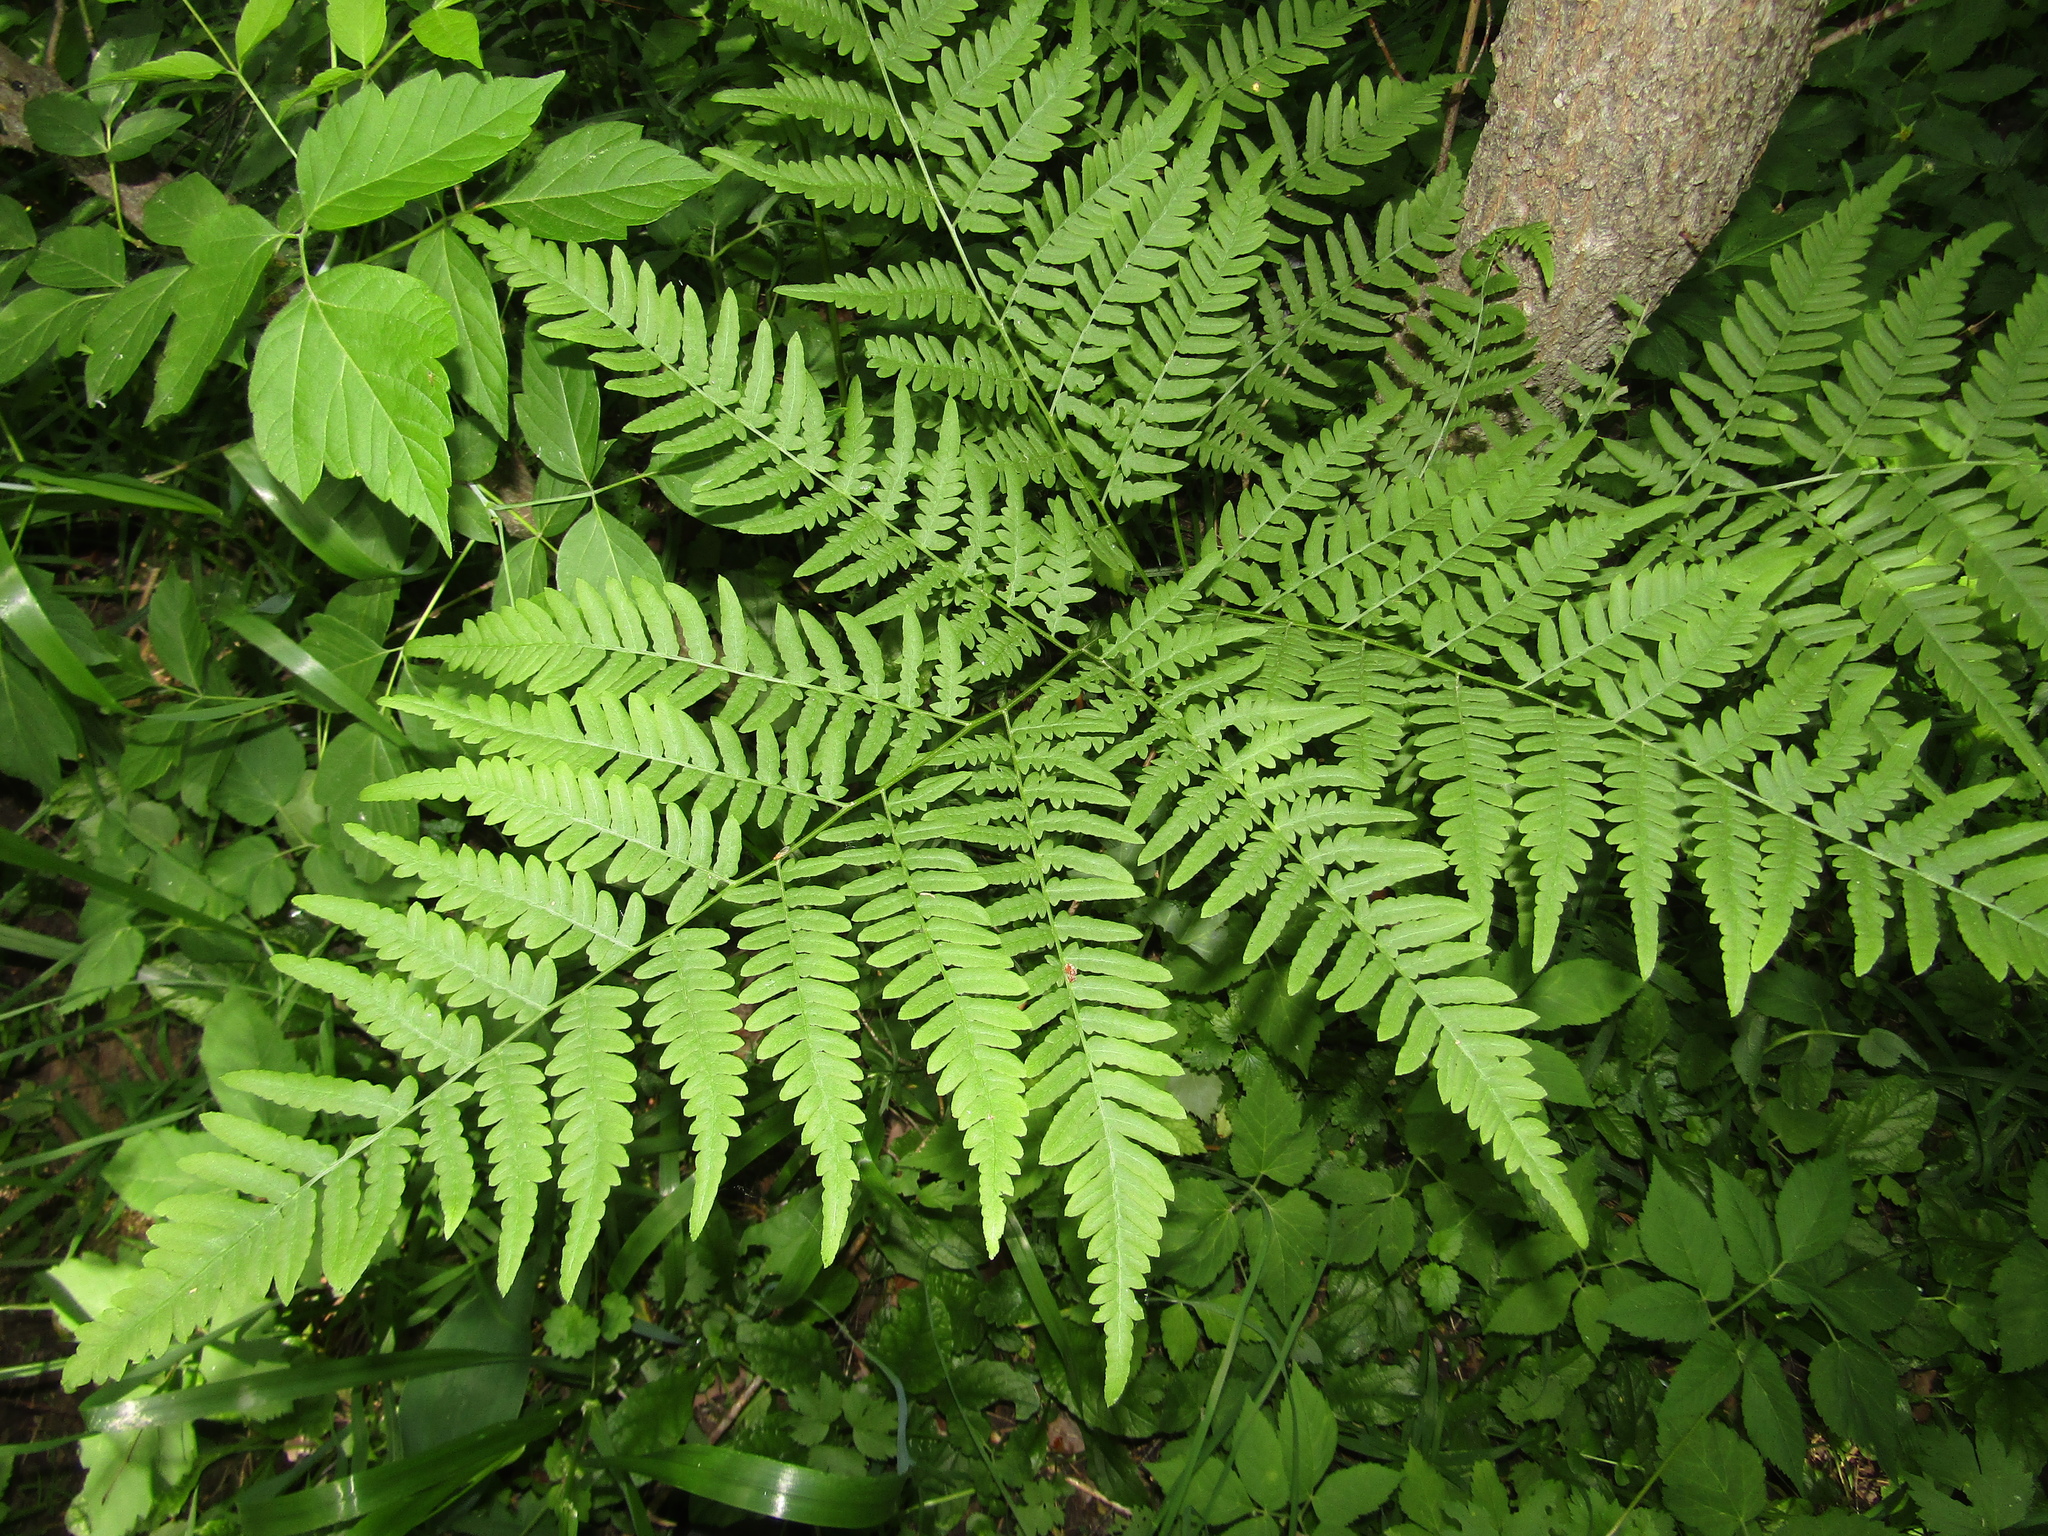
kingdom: Plantae
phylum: Tracheophyta
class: Polypodiopsida
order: Polypodiales
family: Dennstaedtiaceae
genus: Pteridium
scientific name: Pteridium aquilinum
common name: Bracken
